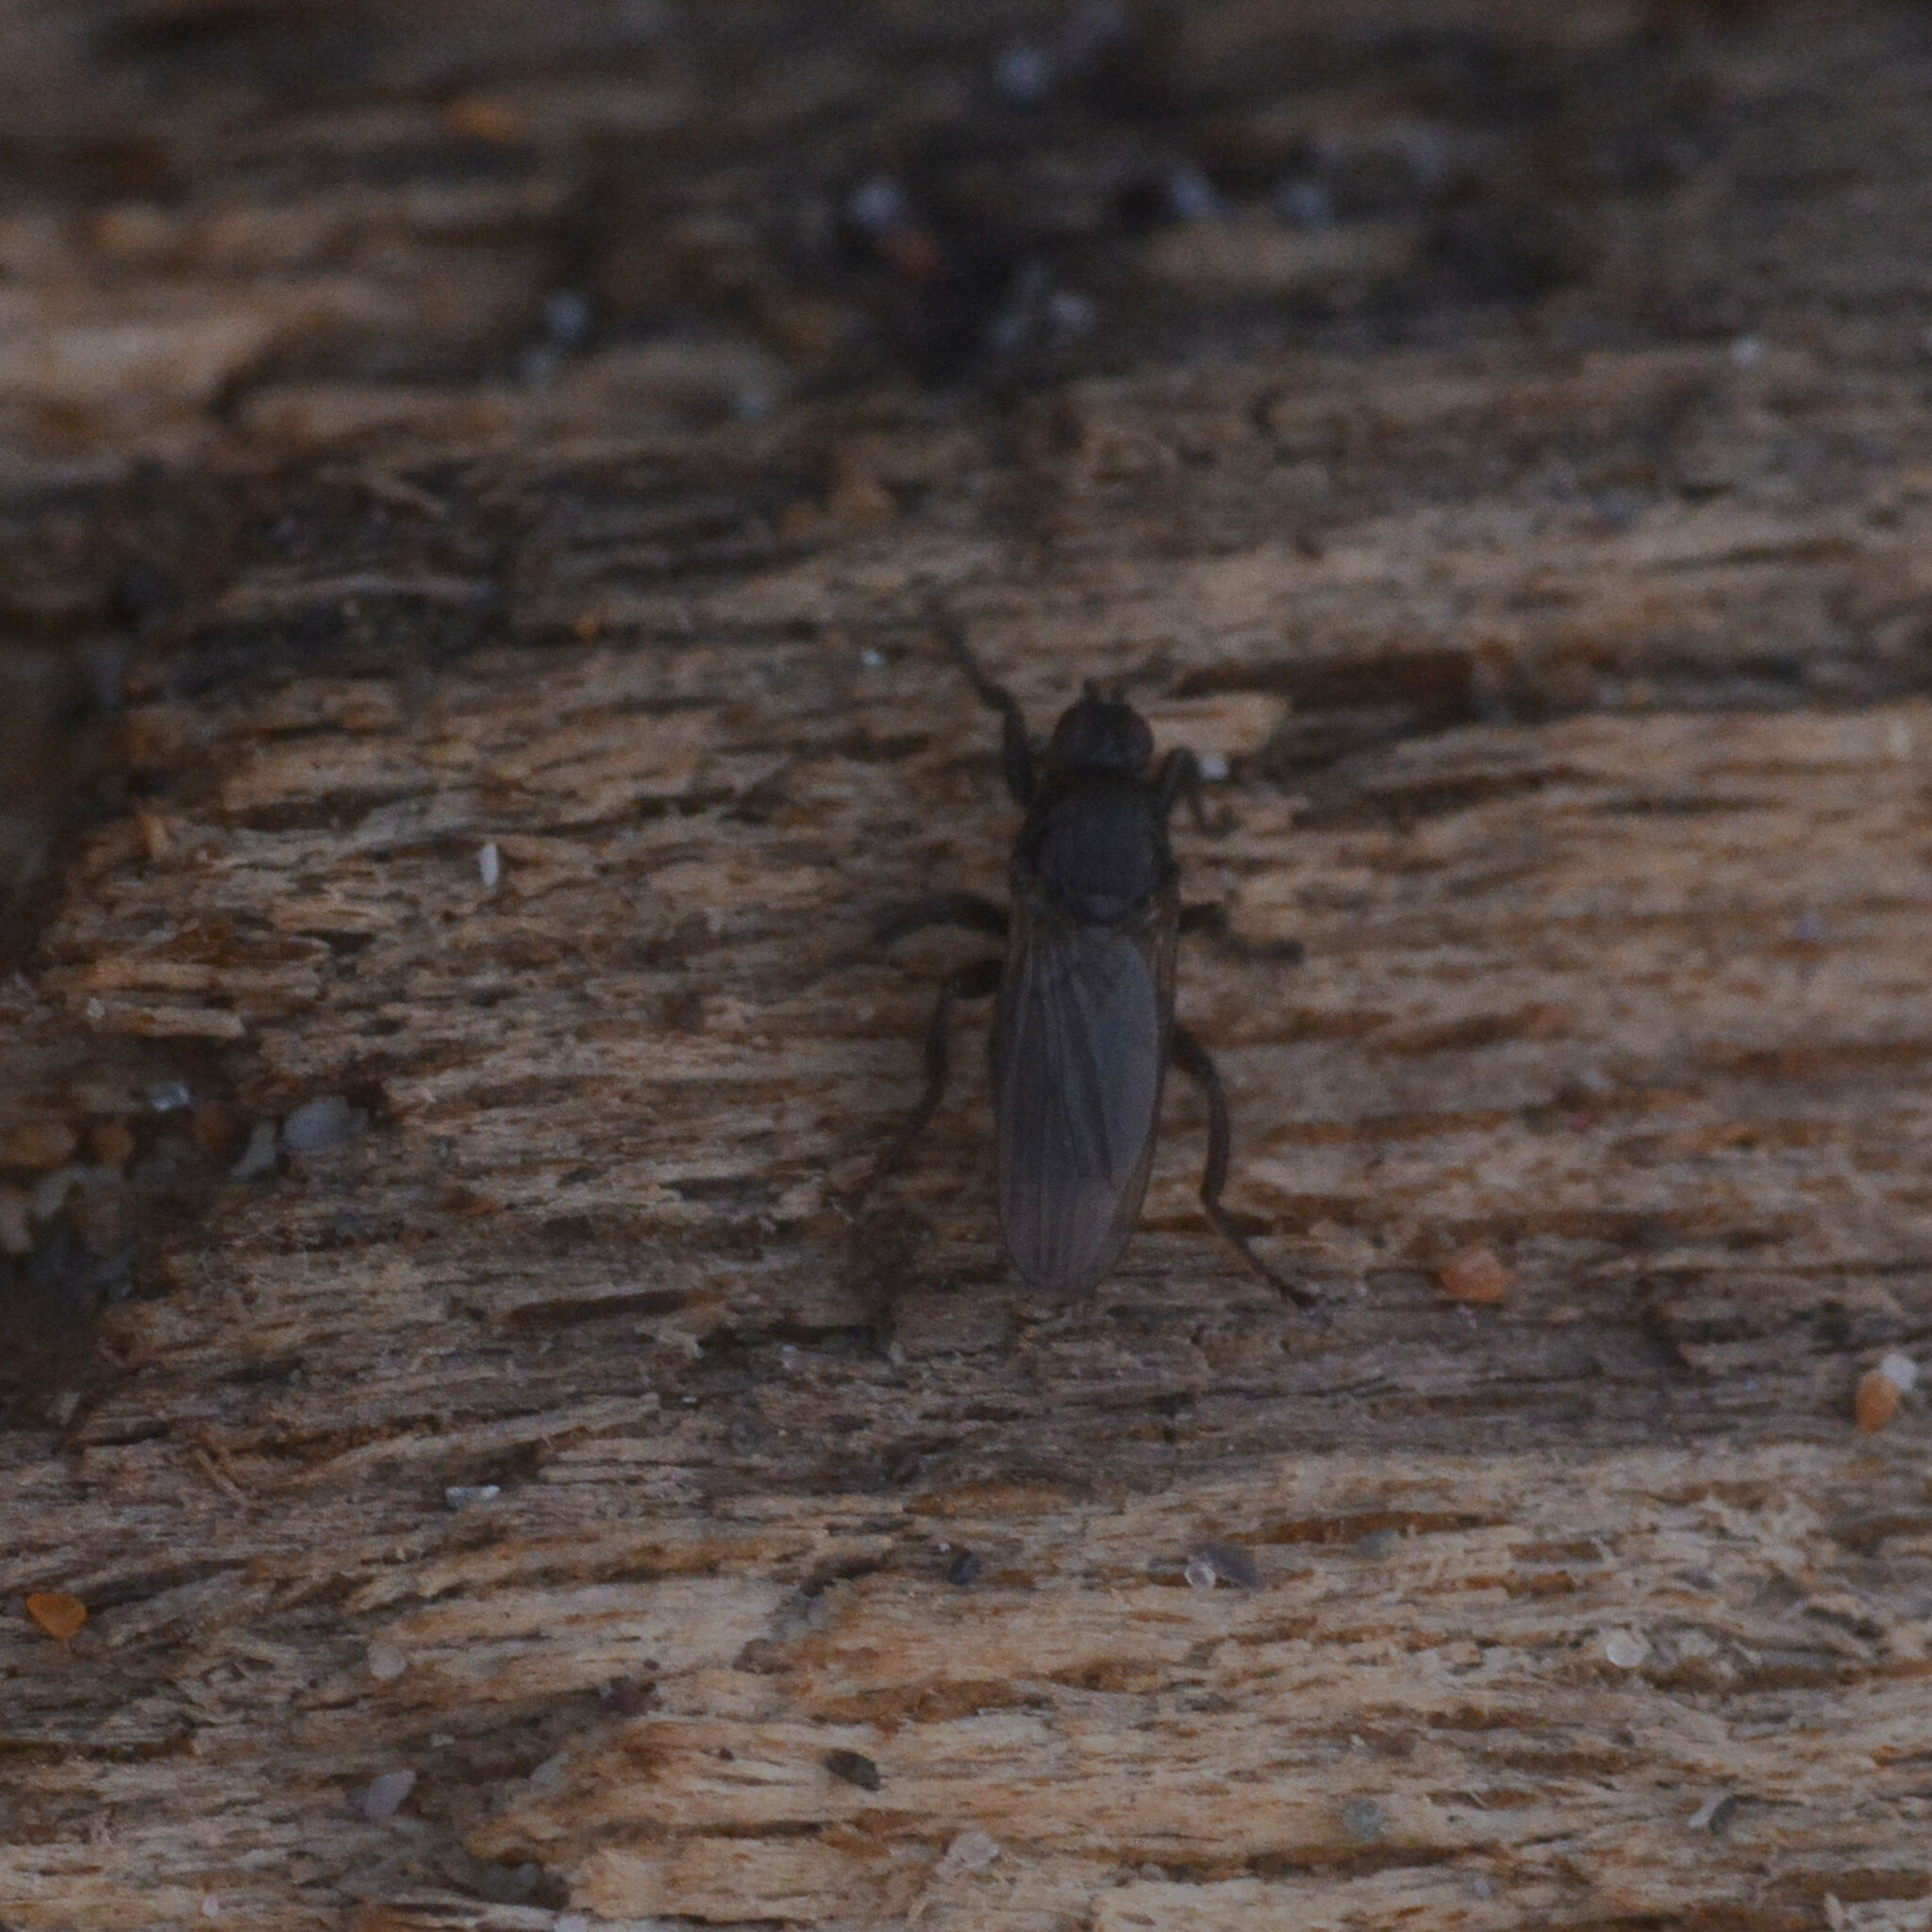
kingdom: Animalia
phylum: Arthropoda
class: Insecta
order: Diptera
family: Coelopidae
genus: Coelopa
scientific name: Coelopa pilipes
